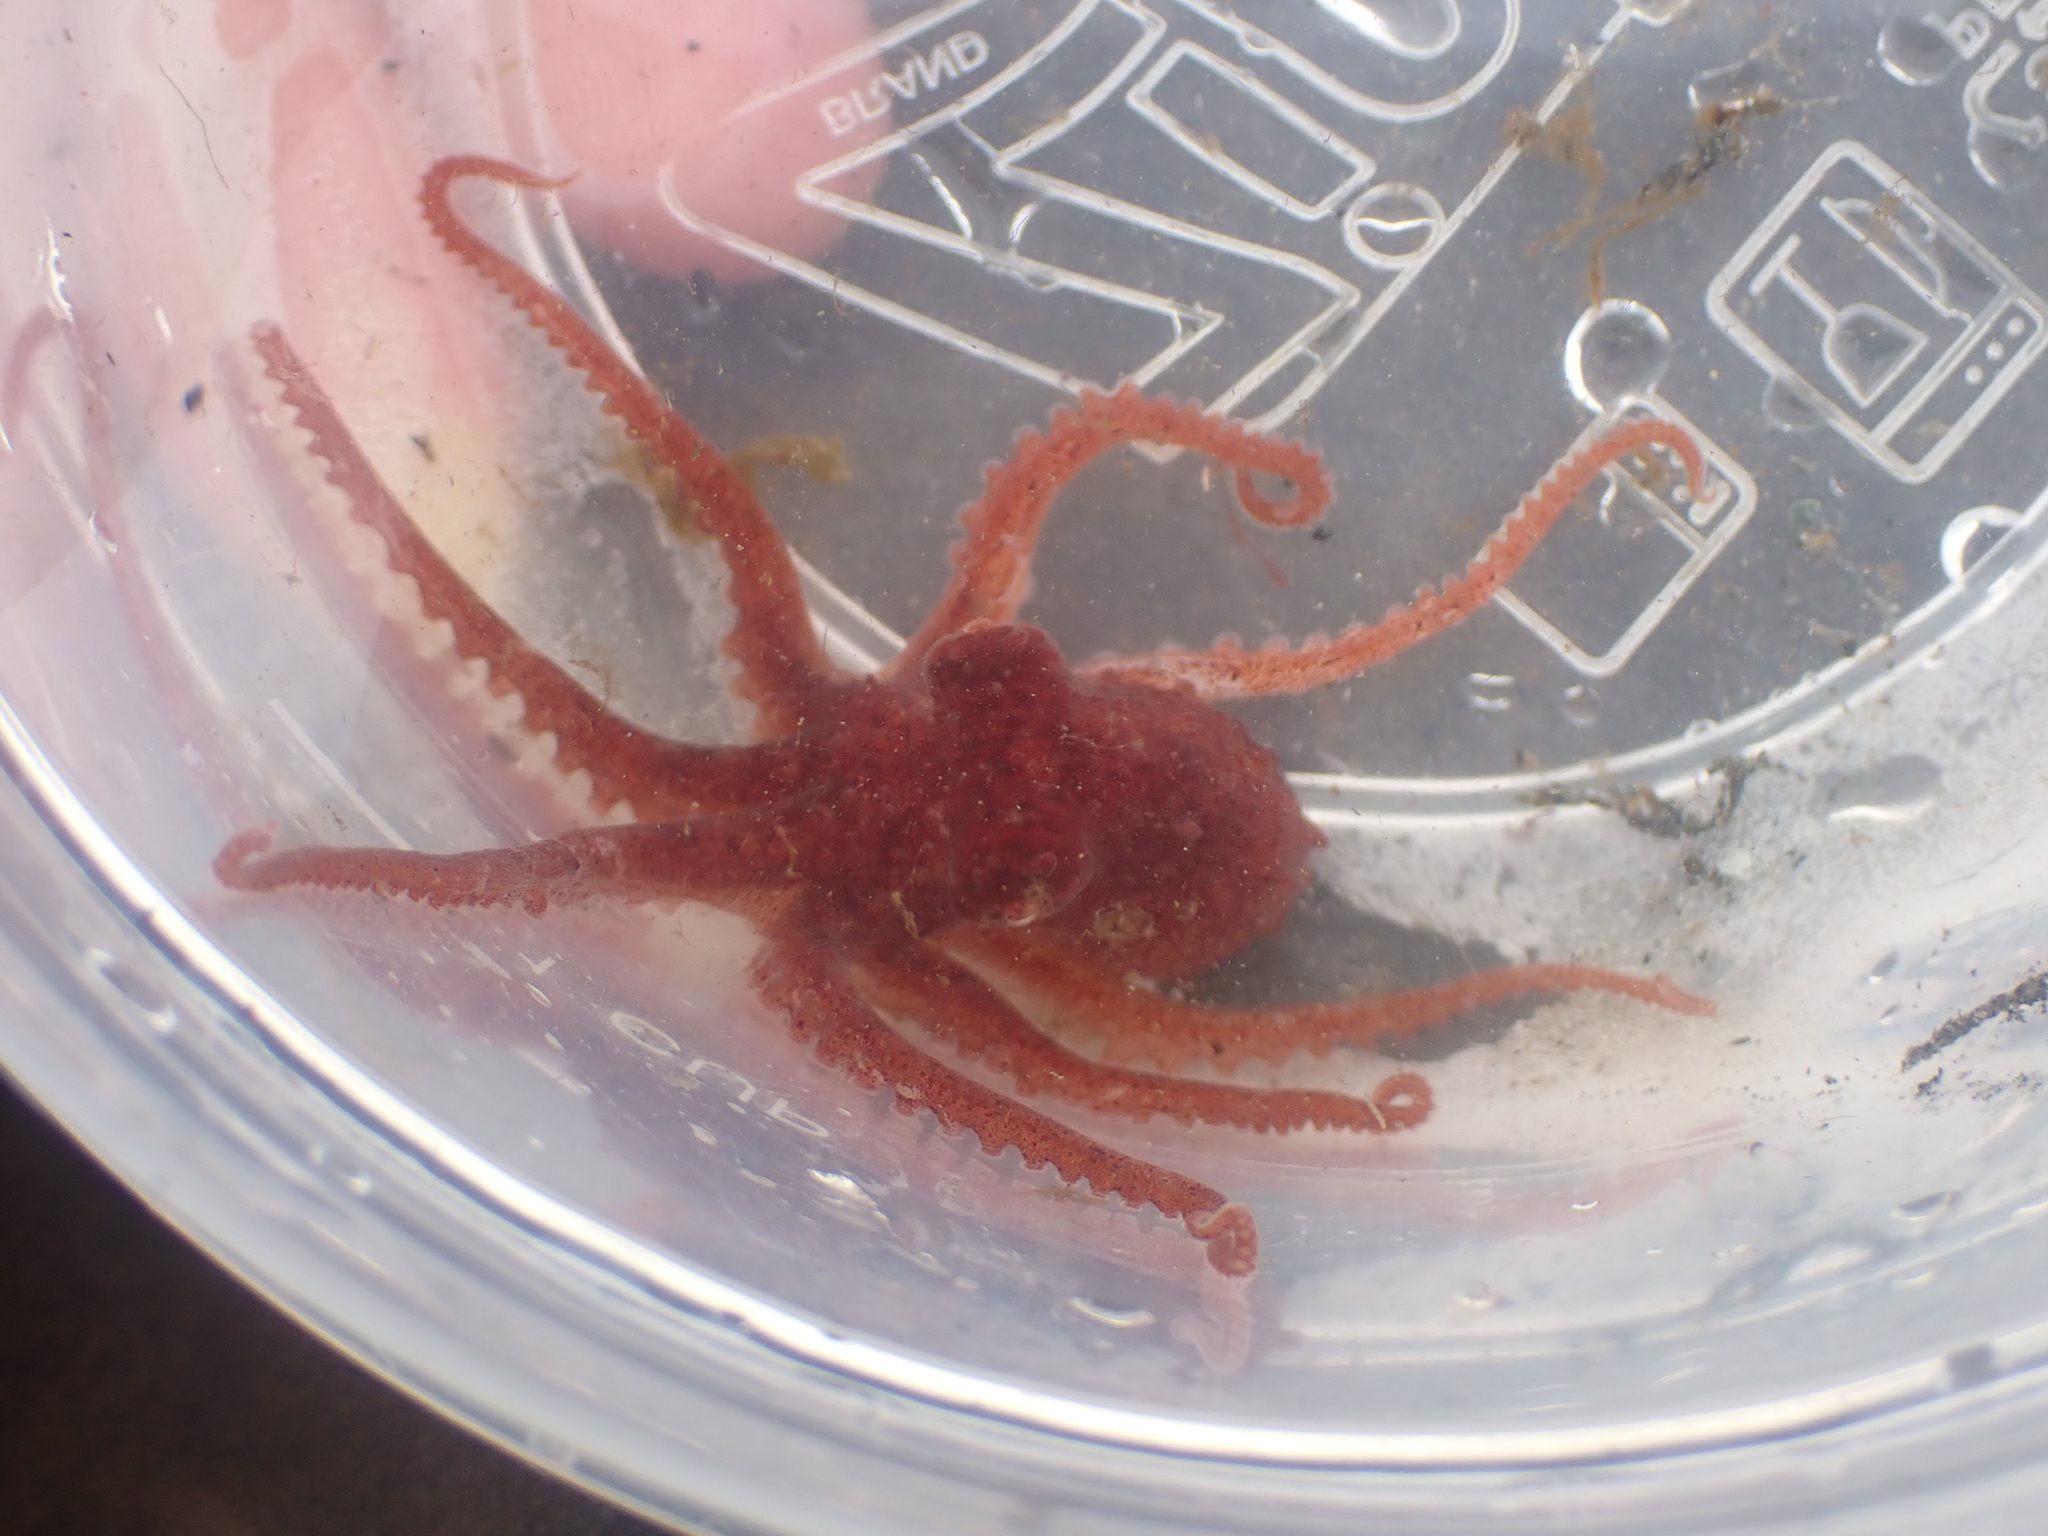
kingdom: Animalia
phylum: Mollusca
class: Cephalopoda
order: Octopoda
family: Enteroctopodidae
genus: Enteroctopus
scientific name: Enteroctopus dofleini
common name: Giant north pacific octopus
